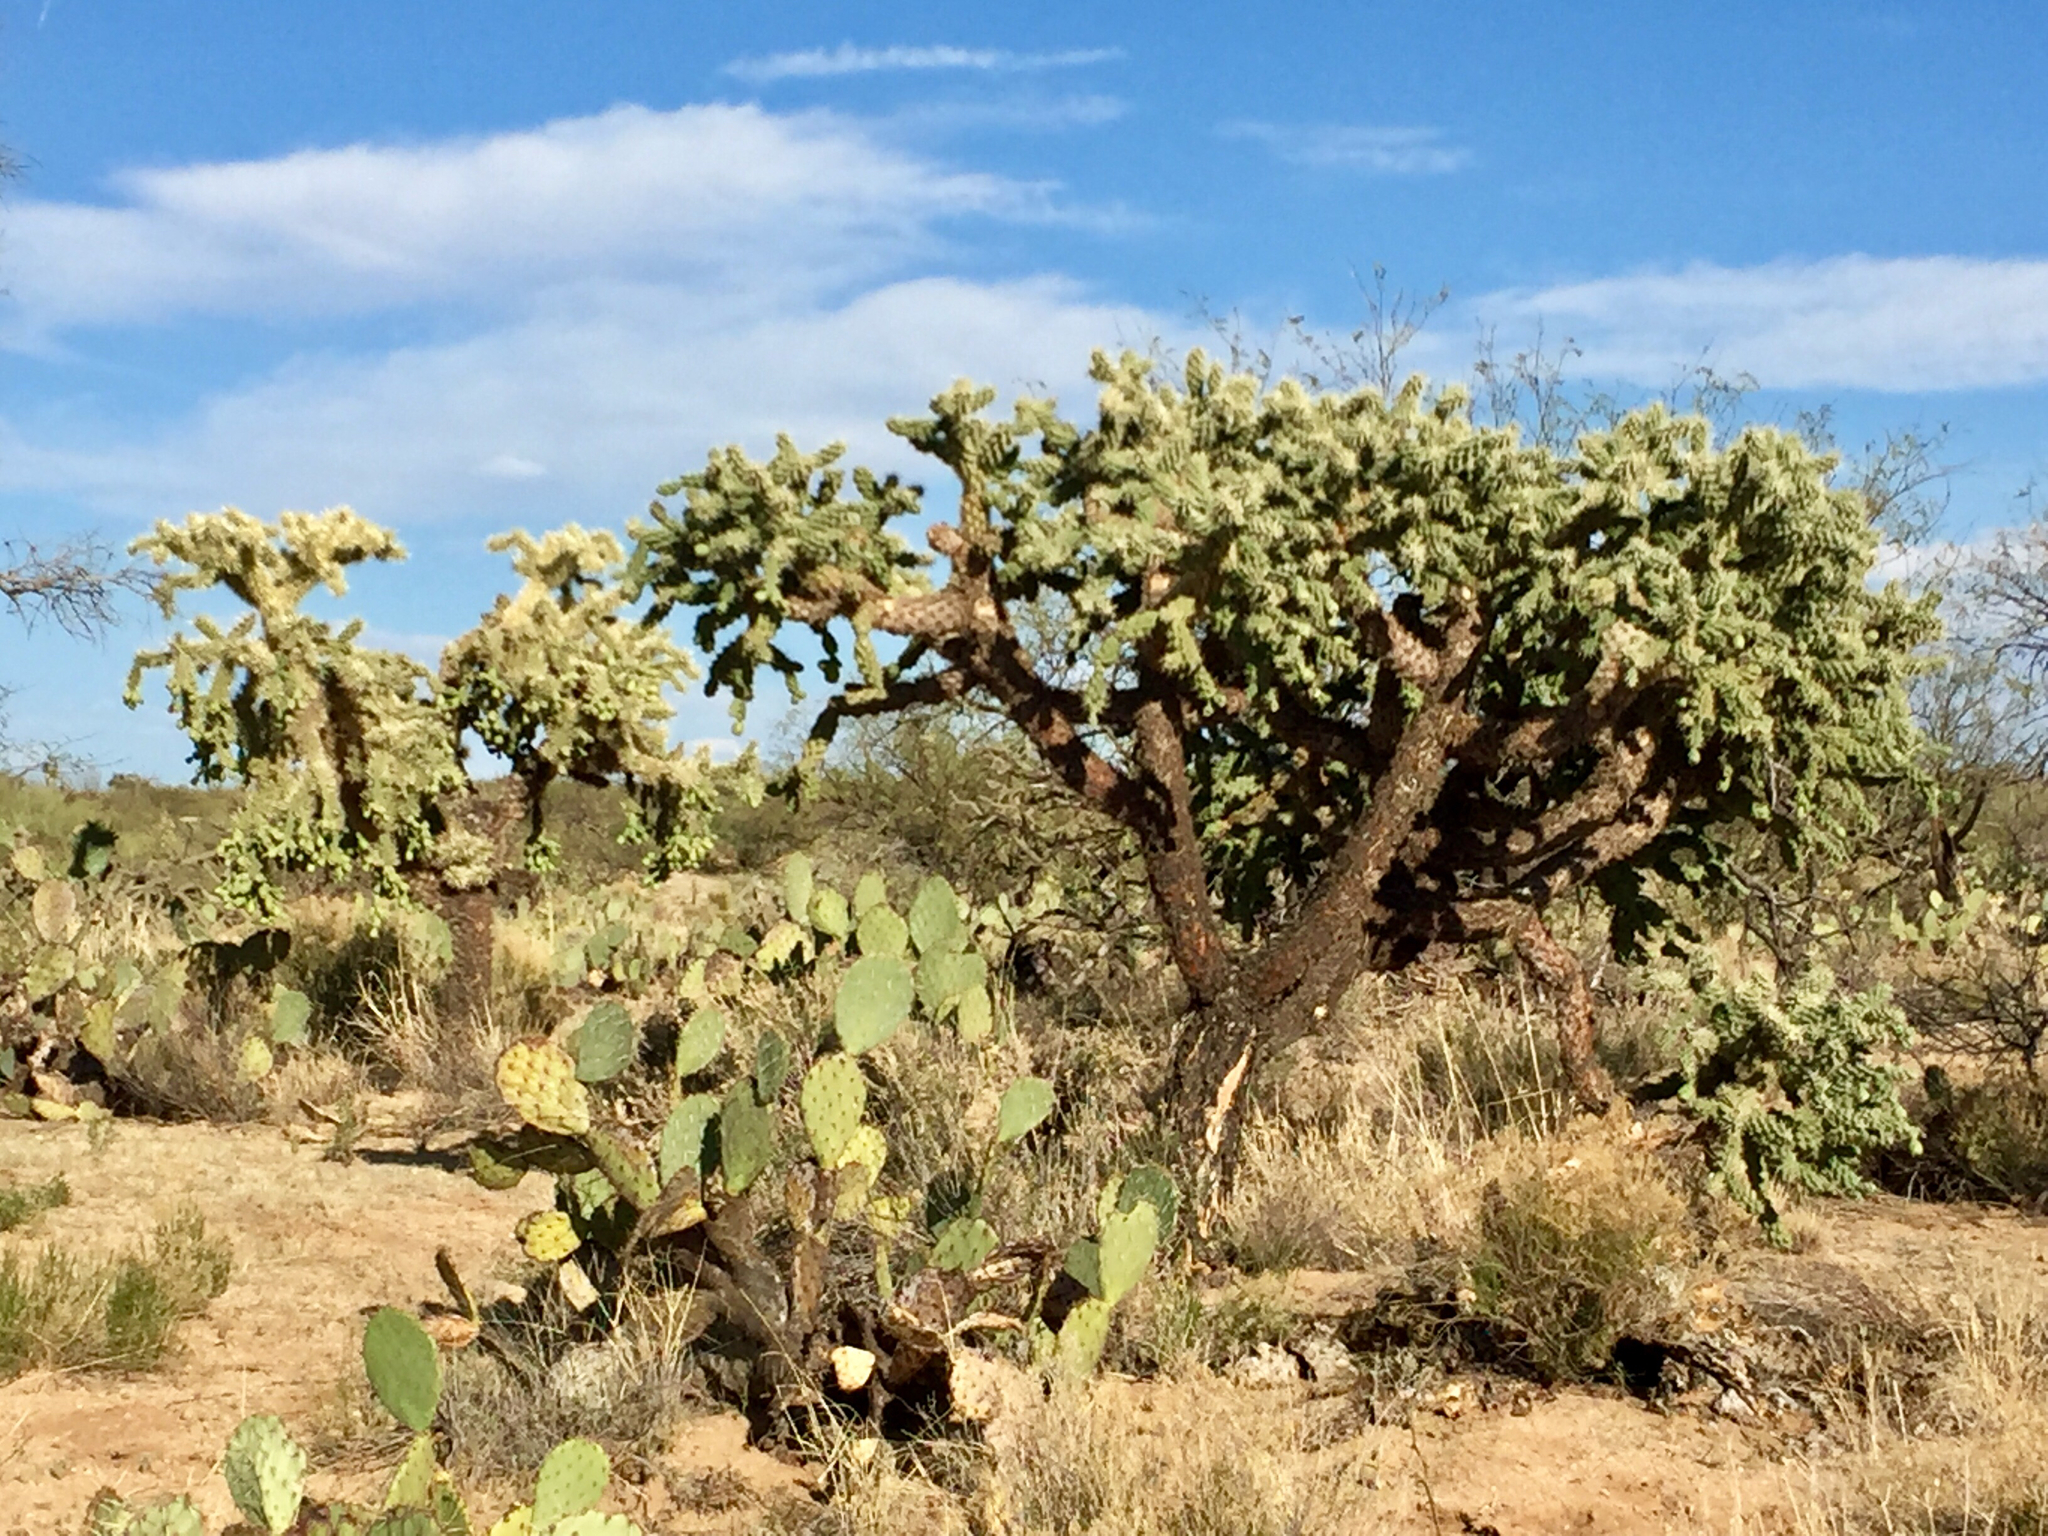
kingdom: Plantae
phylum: Tracheophyta
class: Magnoliopsida
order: Caryophyllales
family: Cactaceae
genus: Cylindropuntia
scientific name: Cylindropuntia fulgida
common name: Jumping cholla
